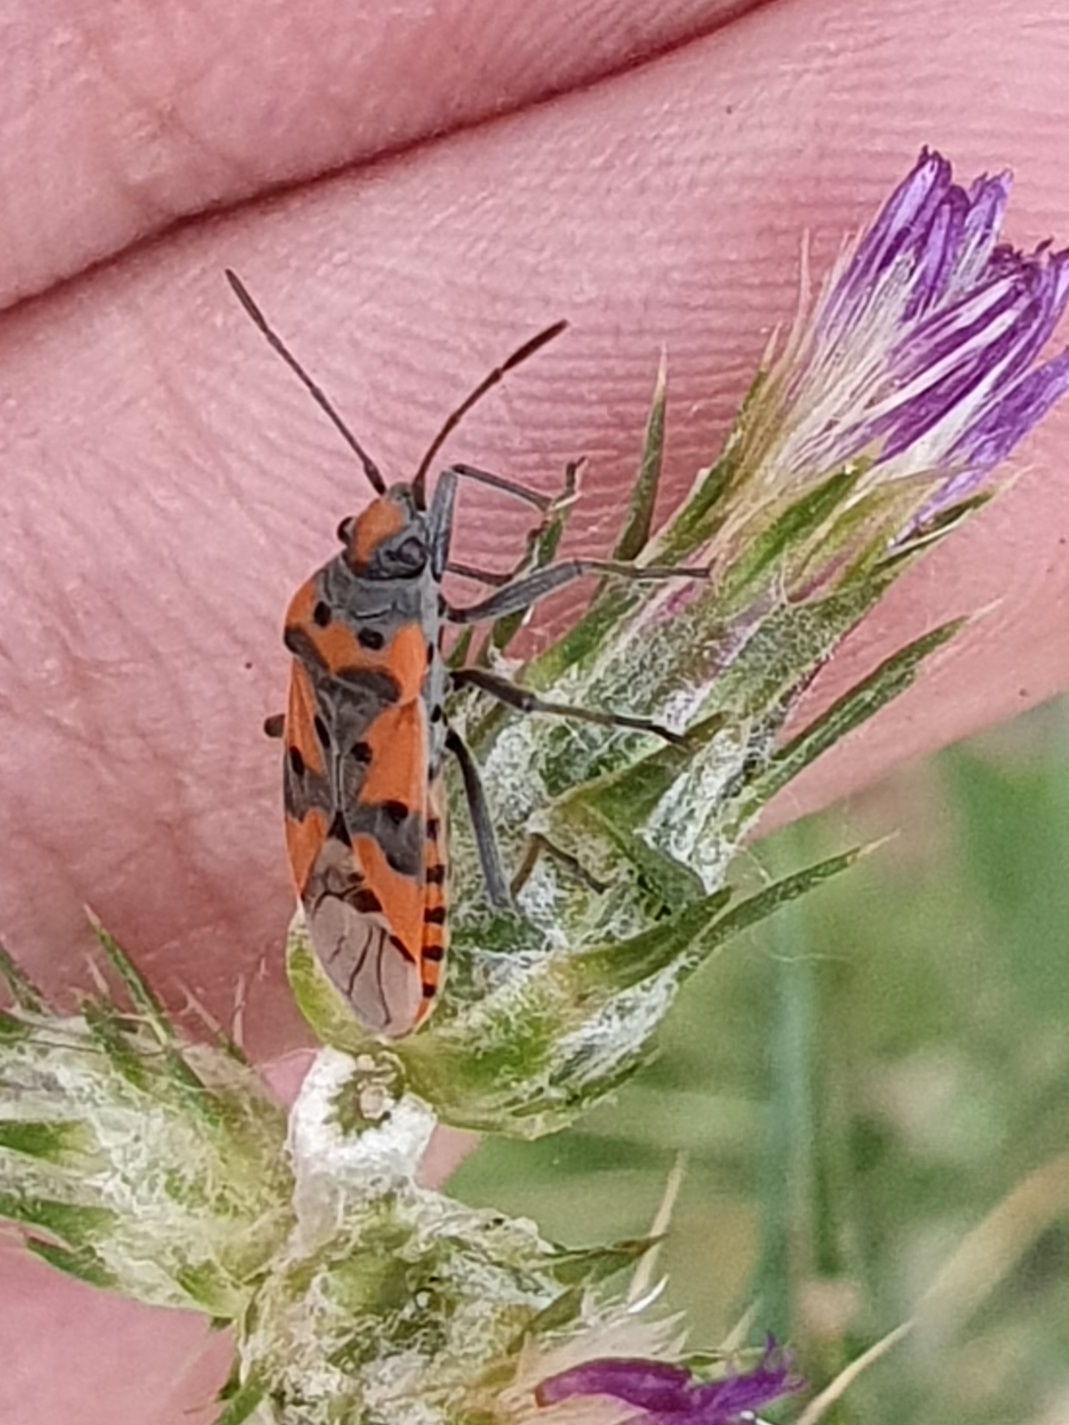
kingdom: Animalia
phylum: Arthropoda
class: Insecta
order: Hemiptera
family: Lygaeidae
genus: Lygaeus
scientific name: Lygaeus equestris
